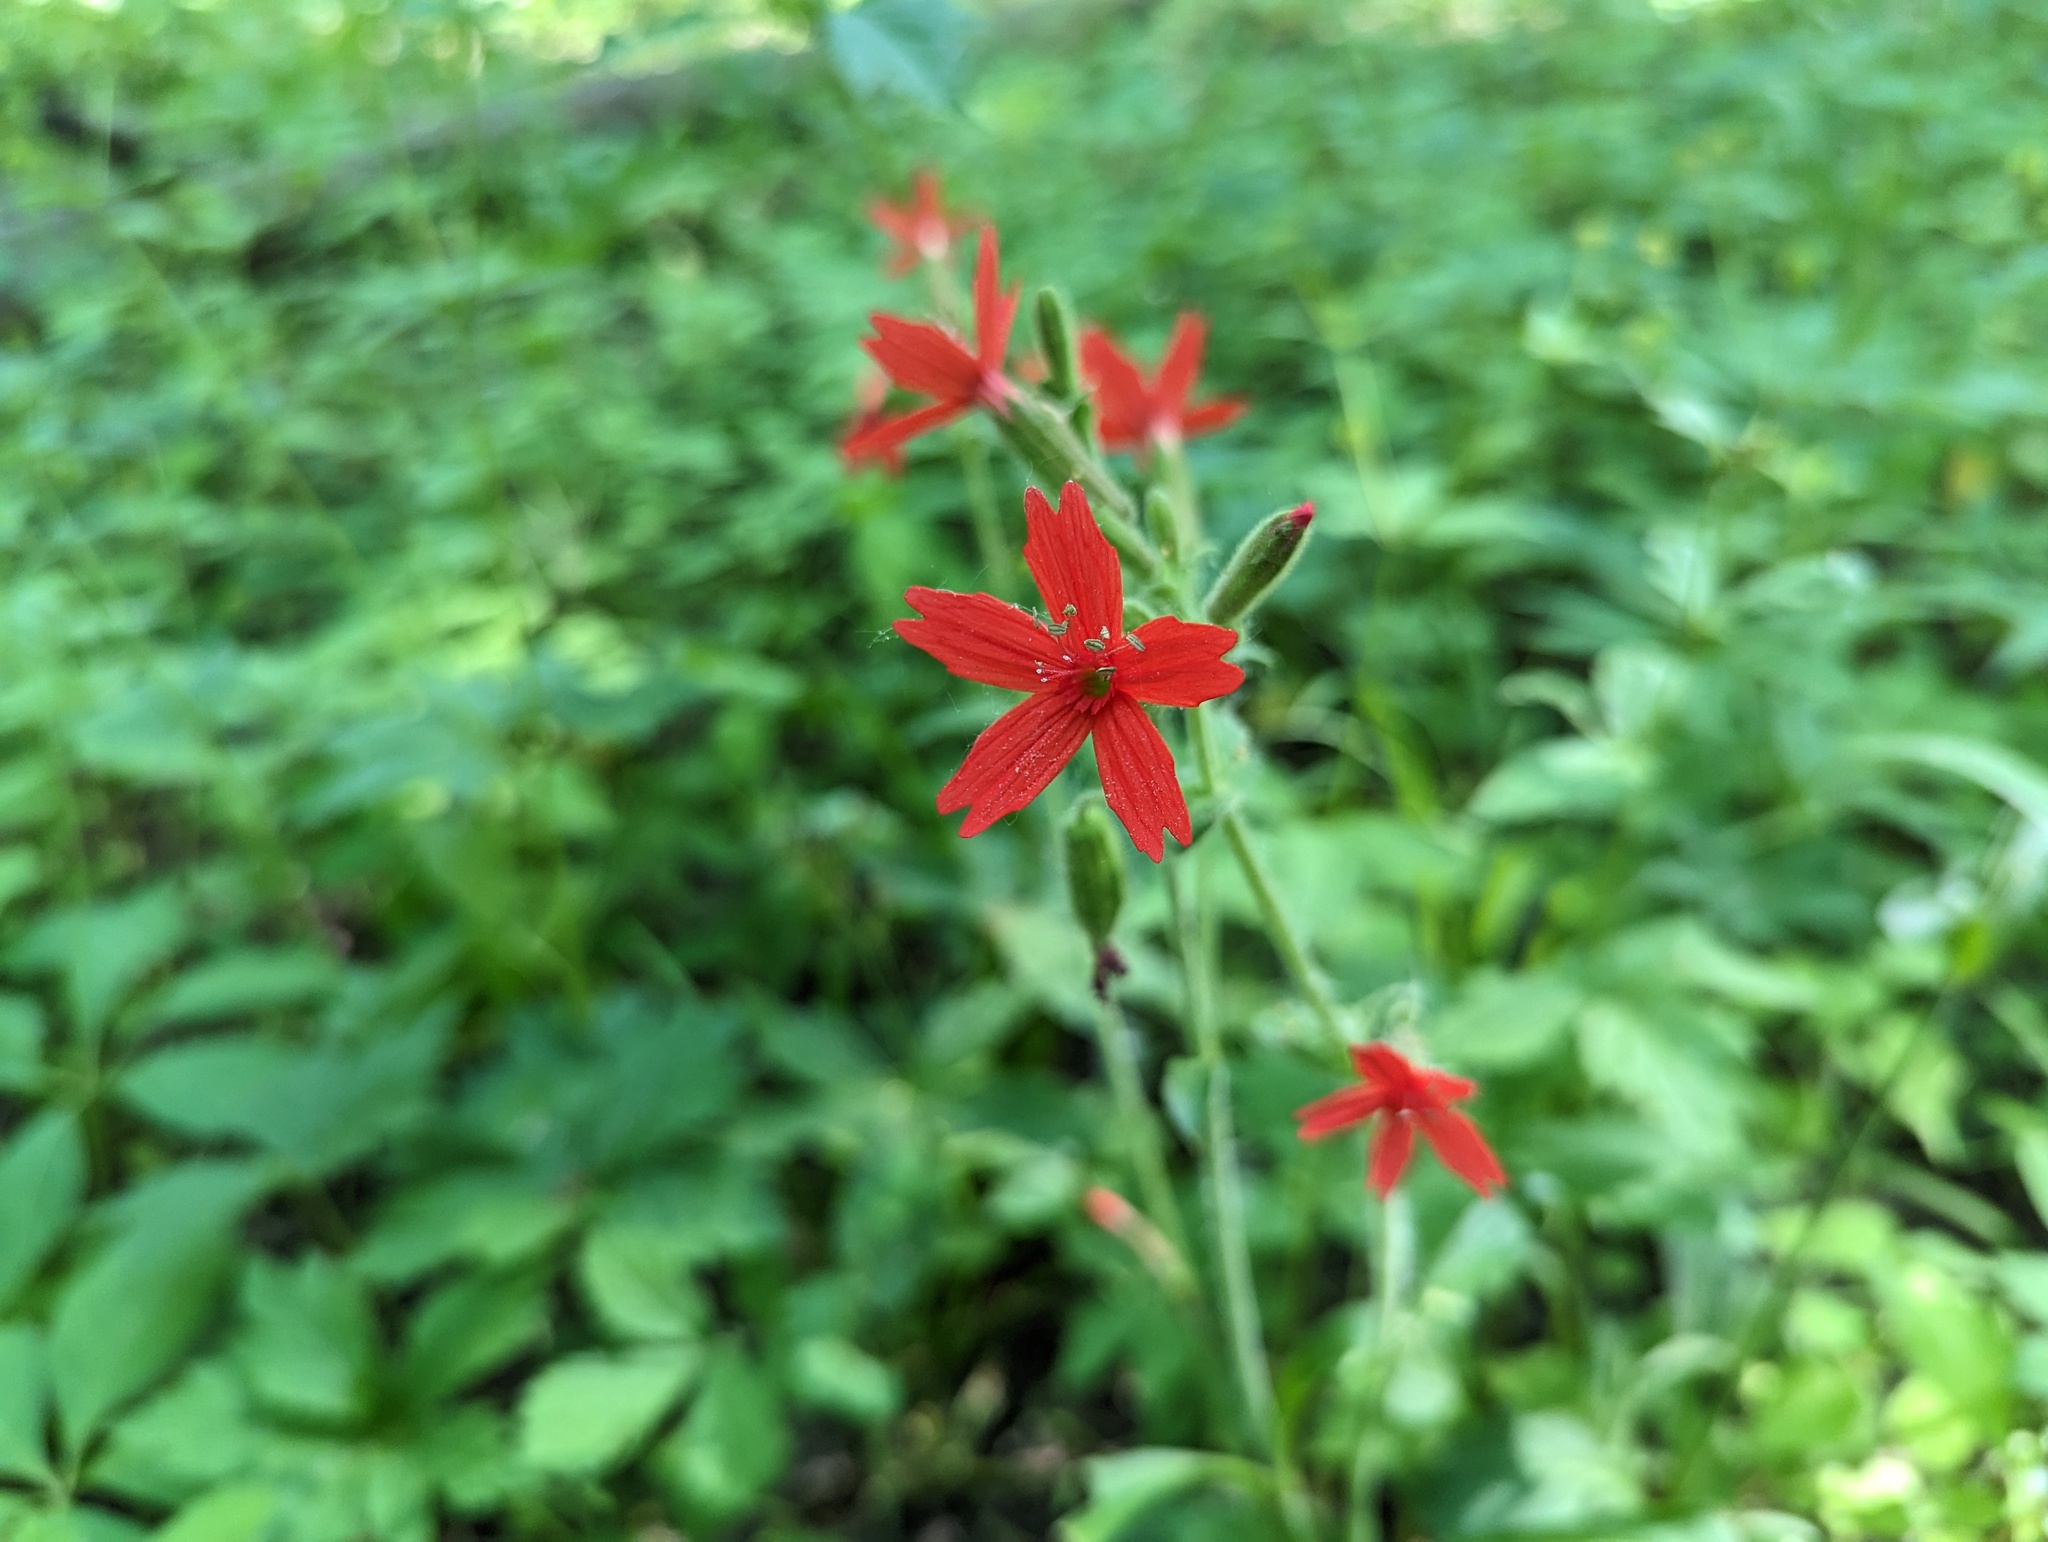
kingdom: Plantae
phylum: Tracheophyta
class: Magnoliopsida
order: Caryophyllales
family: Caryophyllaceae
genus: Silene
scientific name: Silene virginica
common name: Fire-pink
